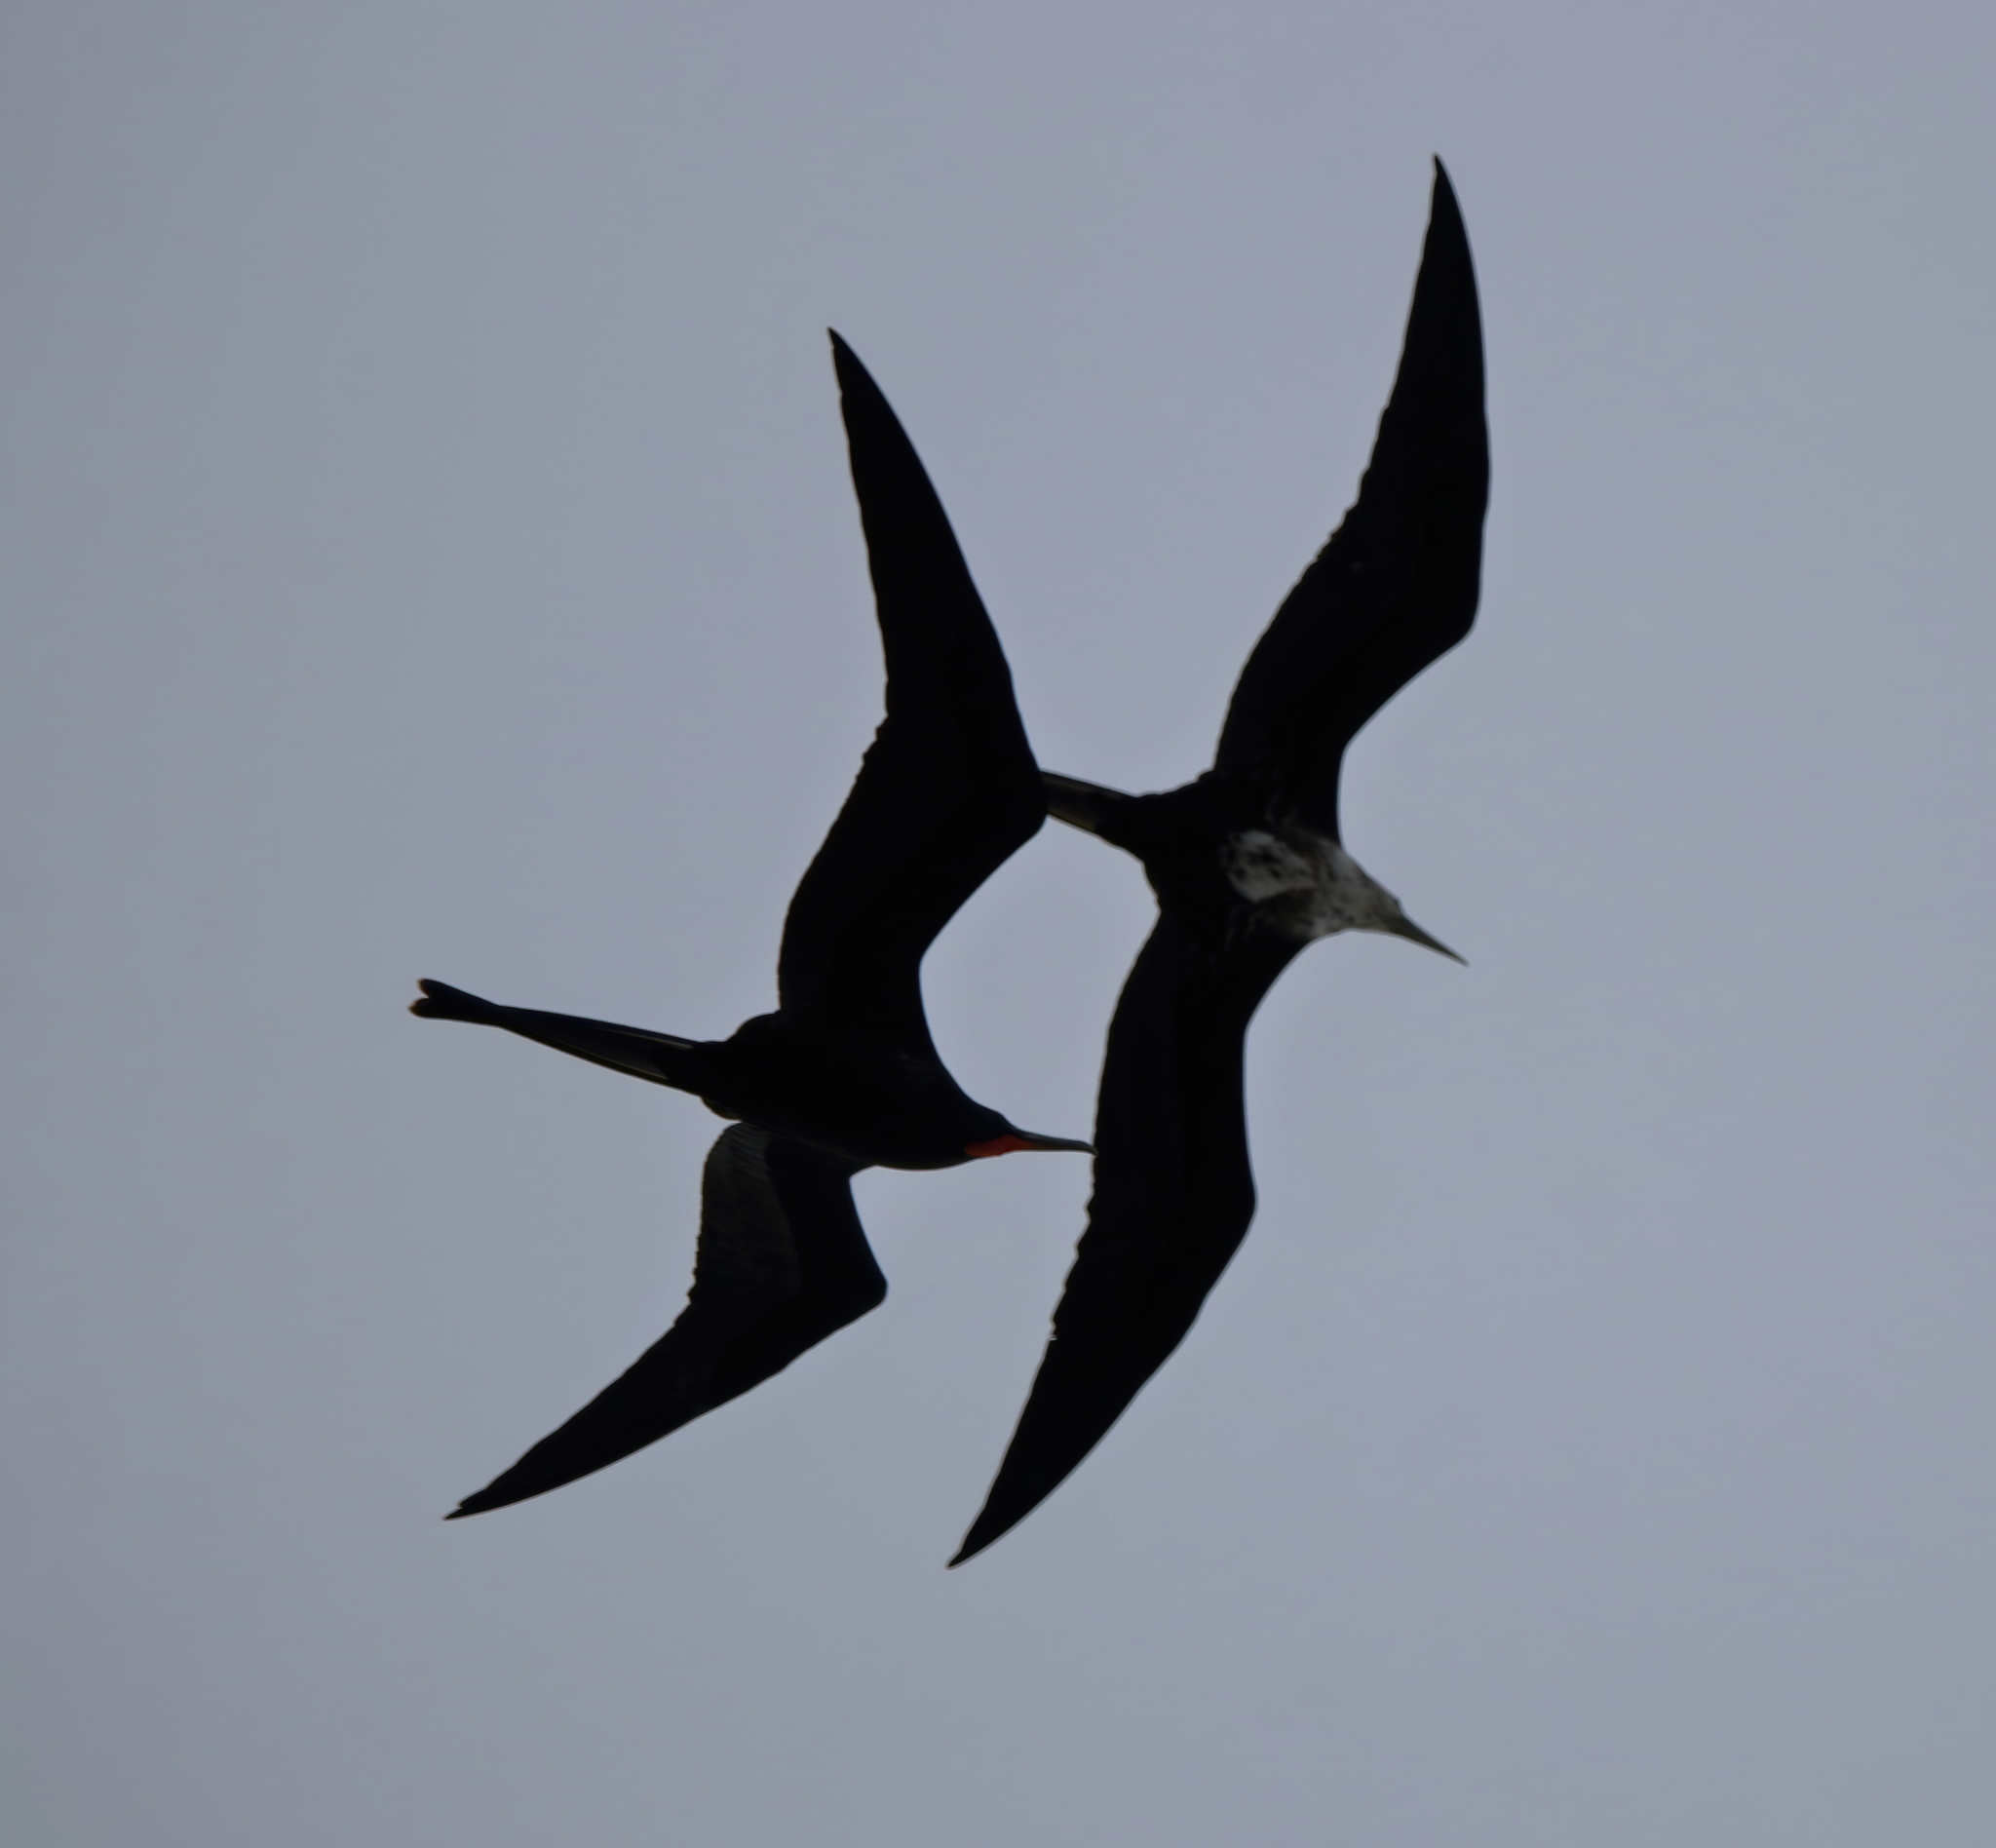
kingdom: Animalia
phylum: Chordata
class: Aves
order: Suliformes
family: Fregatidae
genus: Fregata
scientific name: Fregata magnificens
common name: Magnificent frigatebird
